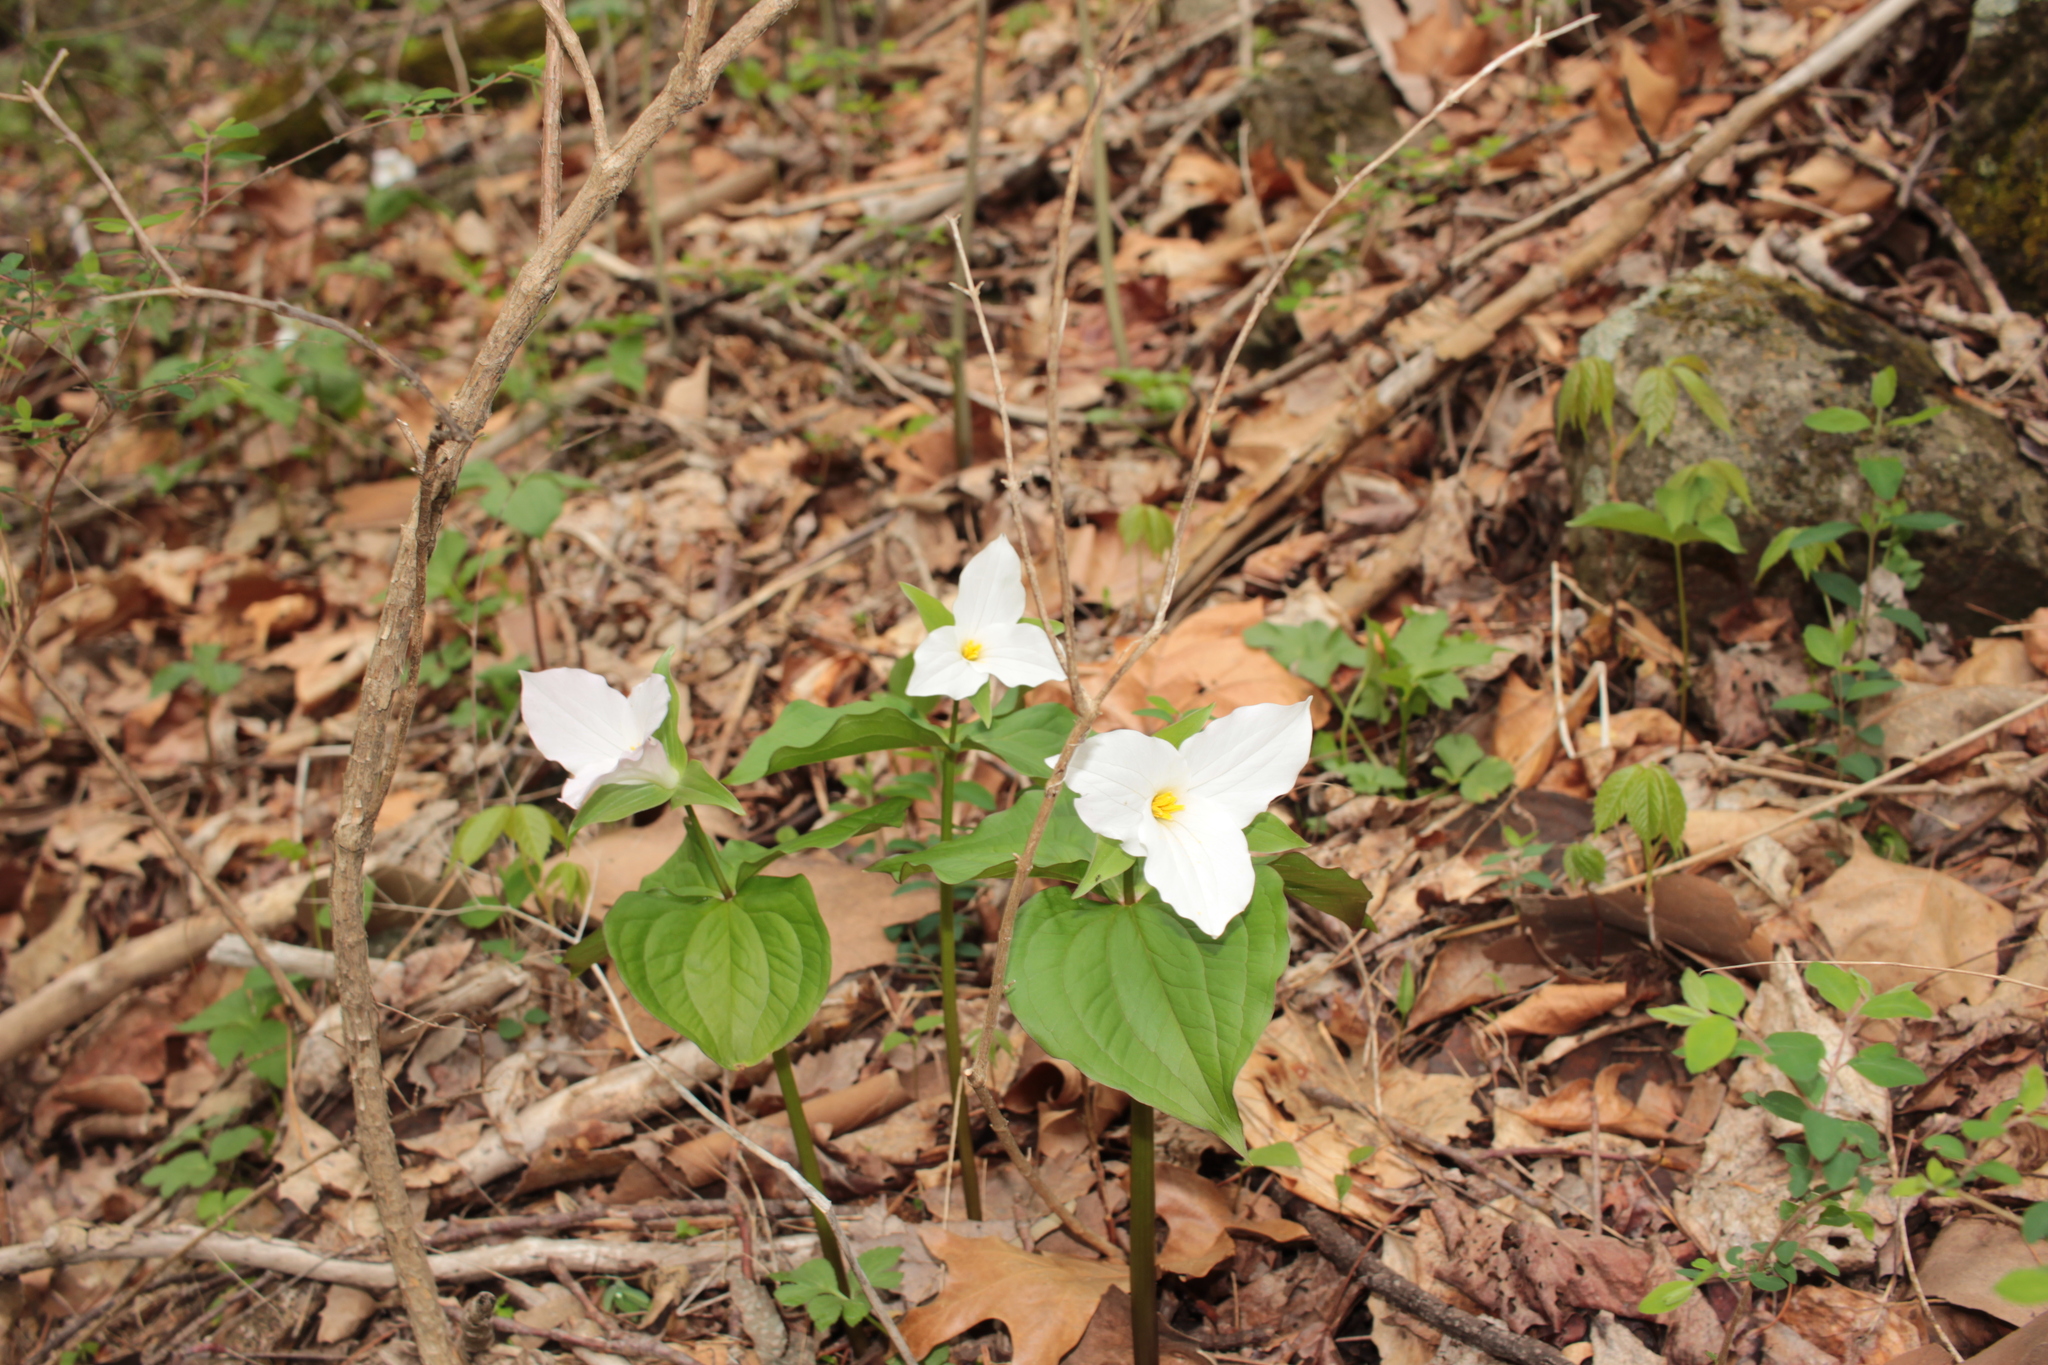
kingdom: Plantae
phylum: Tracheophyta
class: Liliopsida
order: Liliales
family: Melanthiaceae
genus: Trillium
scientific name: Trillium grandiflorum
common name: Great white trillium
